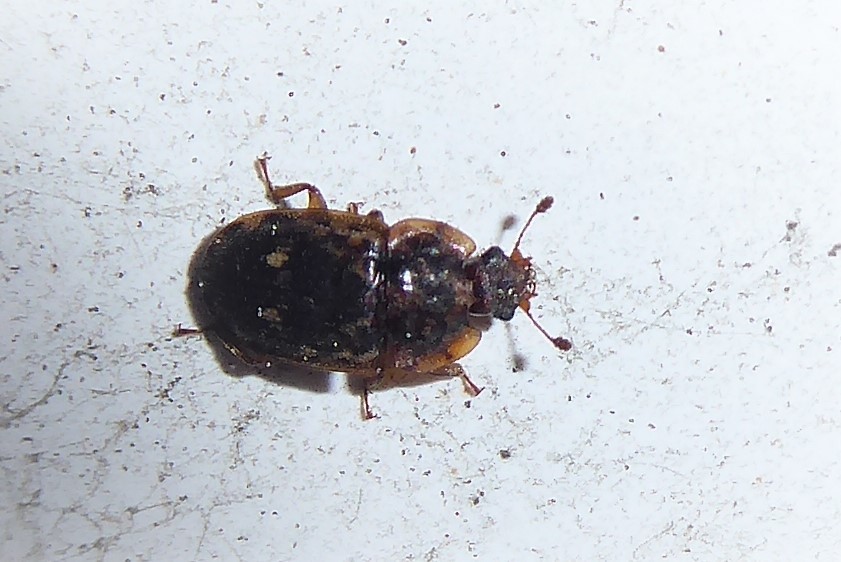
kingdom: Animalia
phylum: Arthropoda
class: Insecta
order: Coleoptera
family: Nitidulidae
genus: Soronia
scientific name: Soronia
